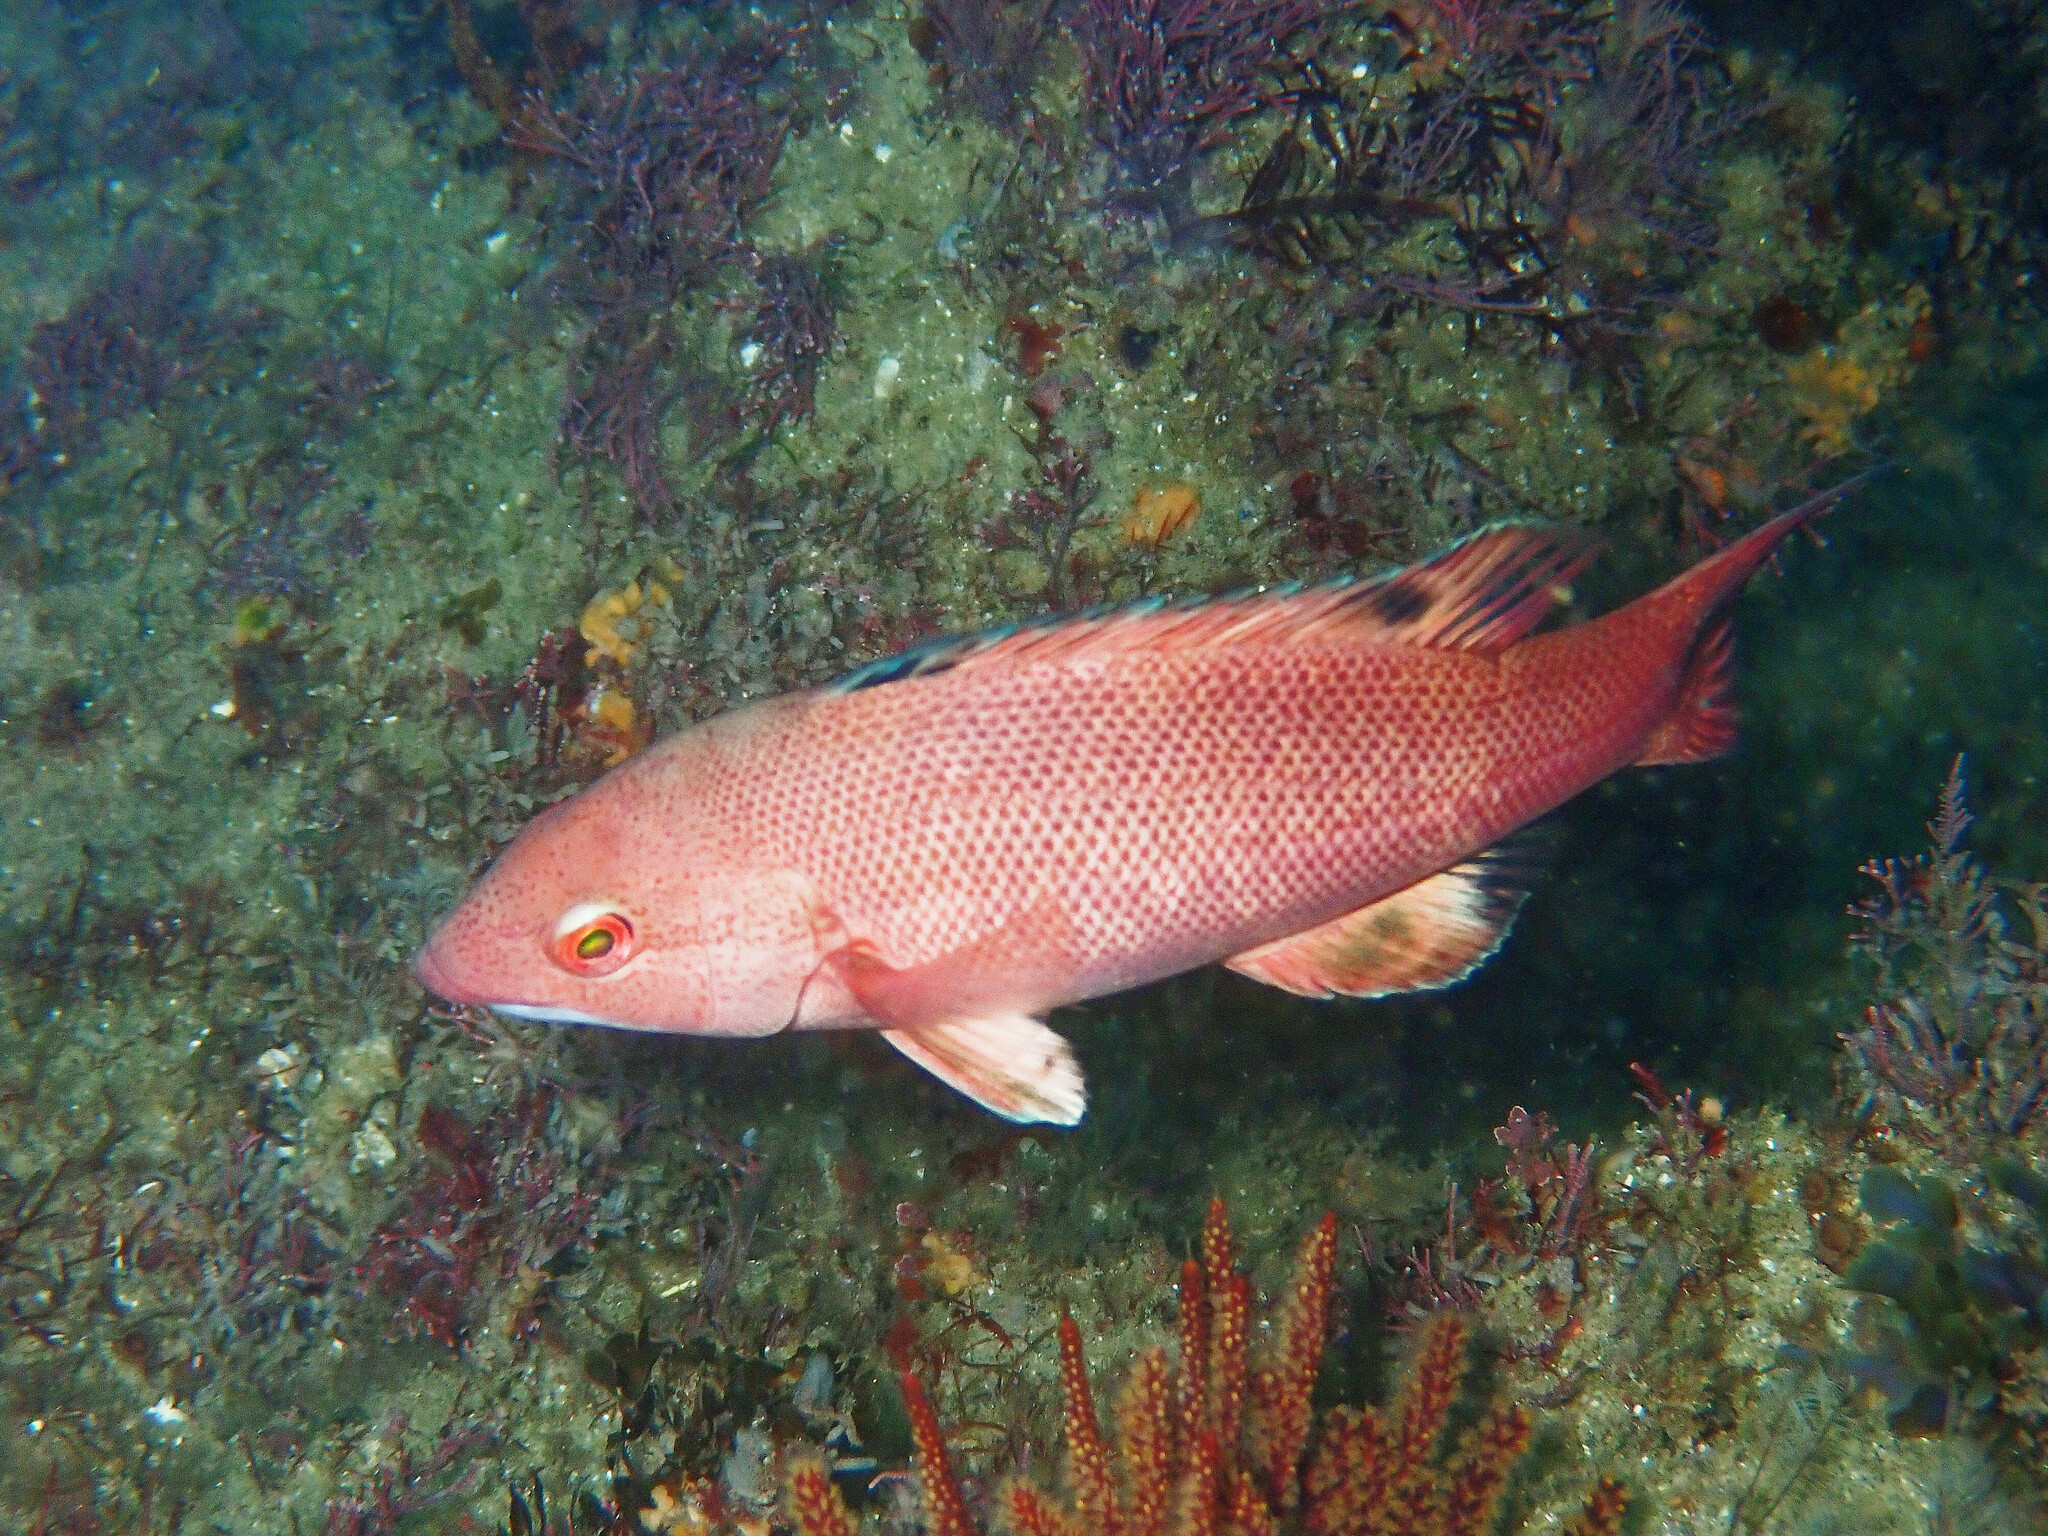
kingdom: Animalia
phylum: Chordata
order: Perciformes
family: Labridae
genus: Semicossyphus
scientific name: Semicossyphus pulcher
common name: California sheephead
